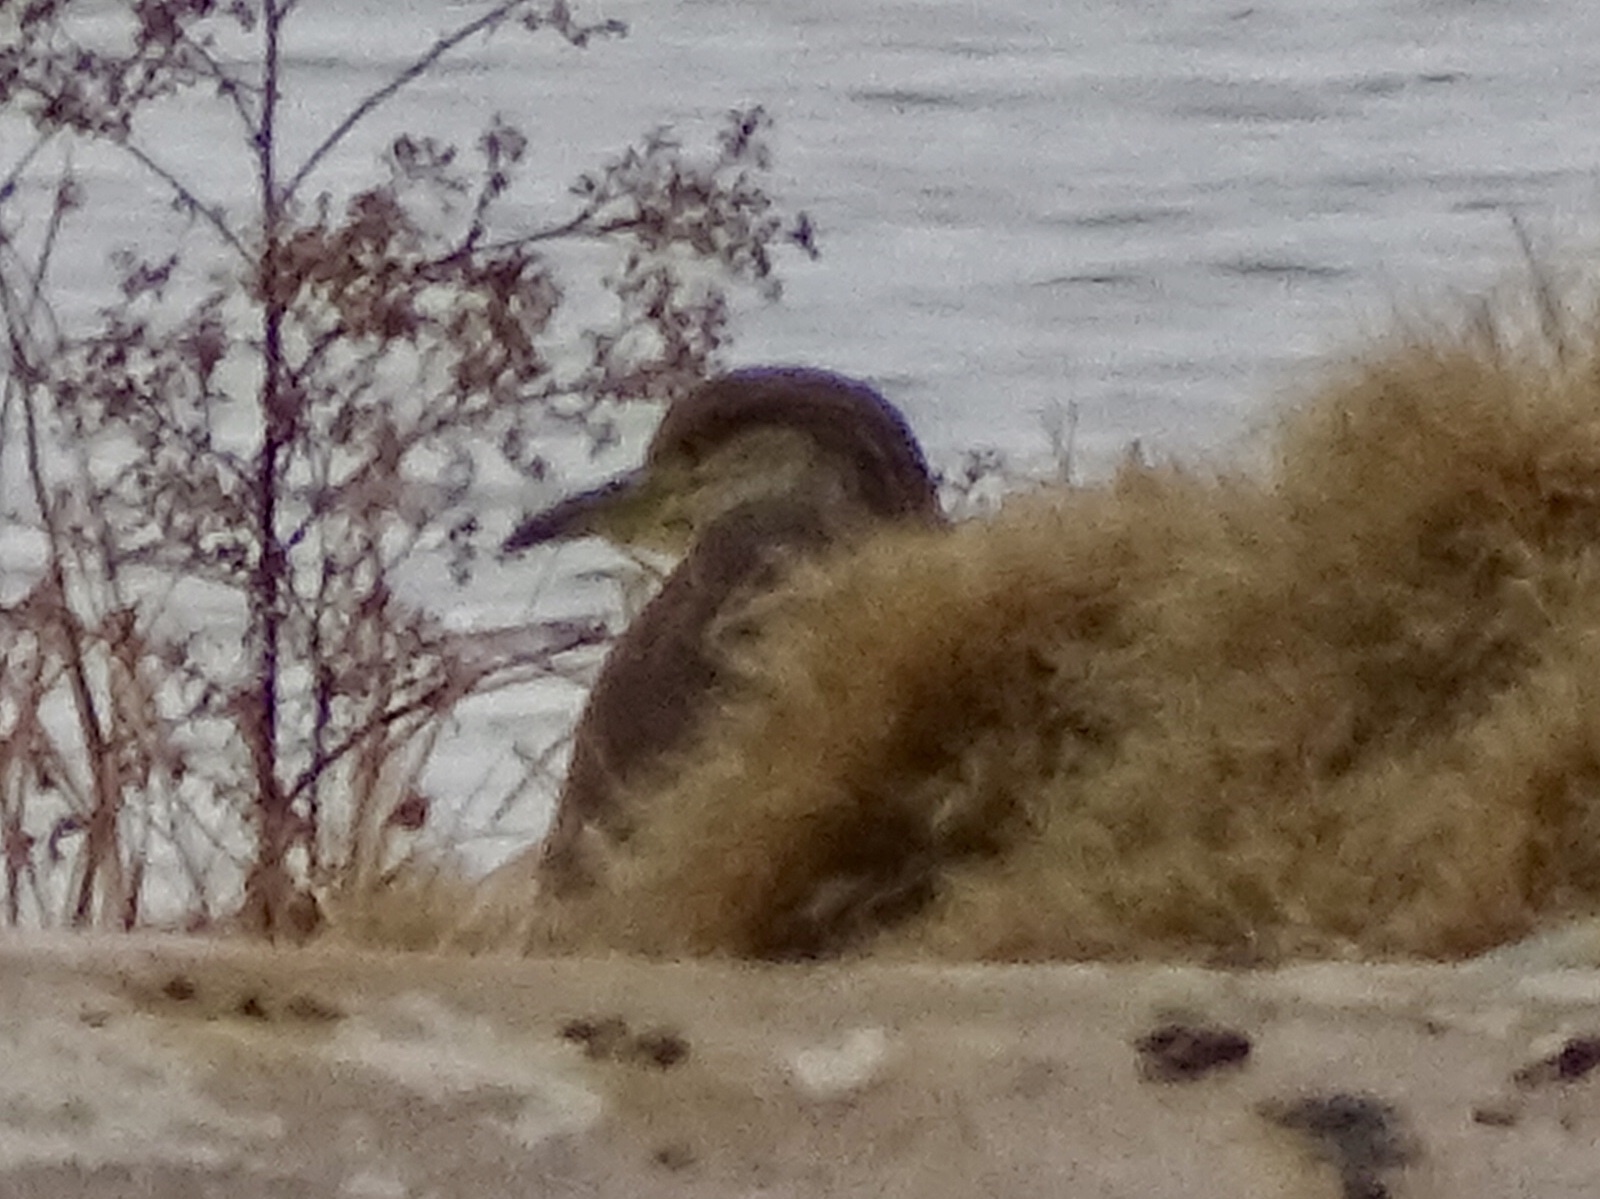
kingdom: Animalia
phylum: Chordata
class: Aves
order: Pelecaniformes
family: Ardeidae
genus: Nycticorax
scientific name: Nycticorax nycticorax
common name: Black-crowned night heron
